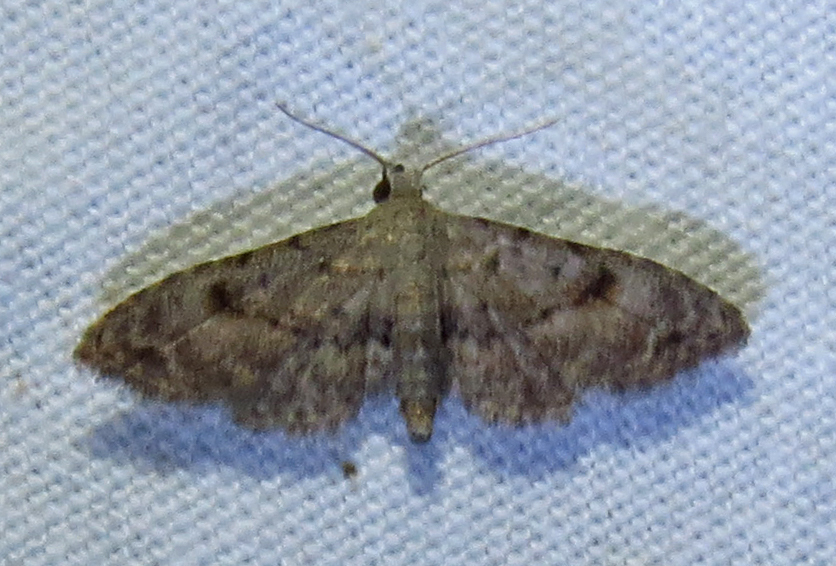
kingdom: Animalia
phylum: Arthropoda
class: Insecta
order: Lepidoptera
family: Erebidae
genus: Sigela
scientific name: Sigela brauneata
